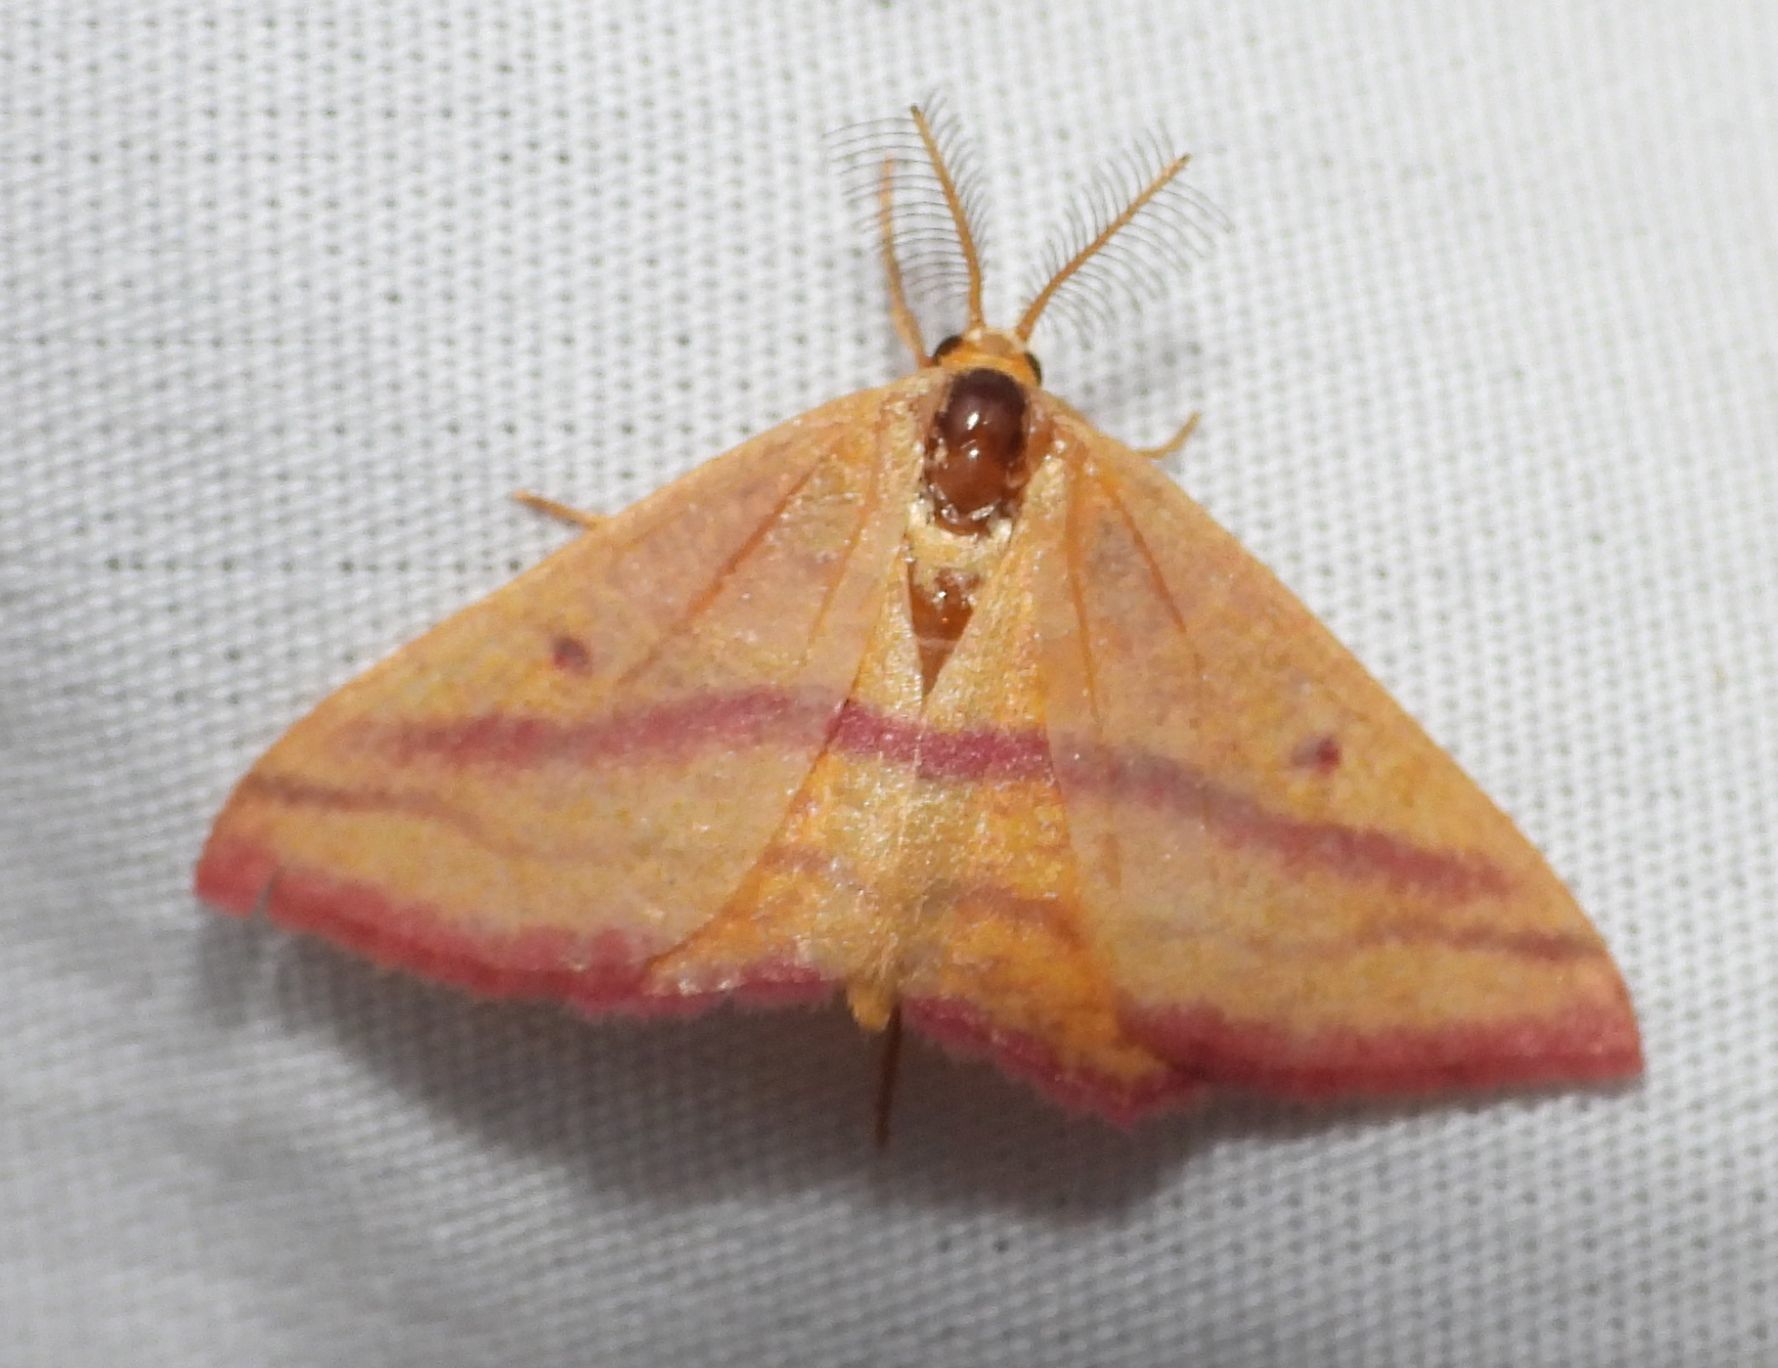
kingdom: Animalia
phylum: Arthropoda
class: Insecta
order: Lepidoptera
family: Geometridae
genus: Haematopis
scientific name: Haematopis grataria
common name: Chickweed geometer
